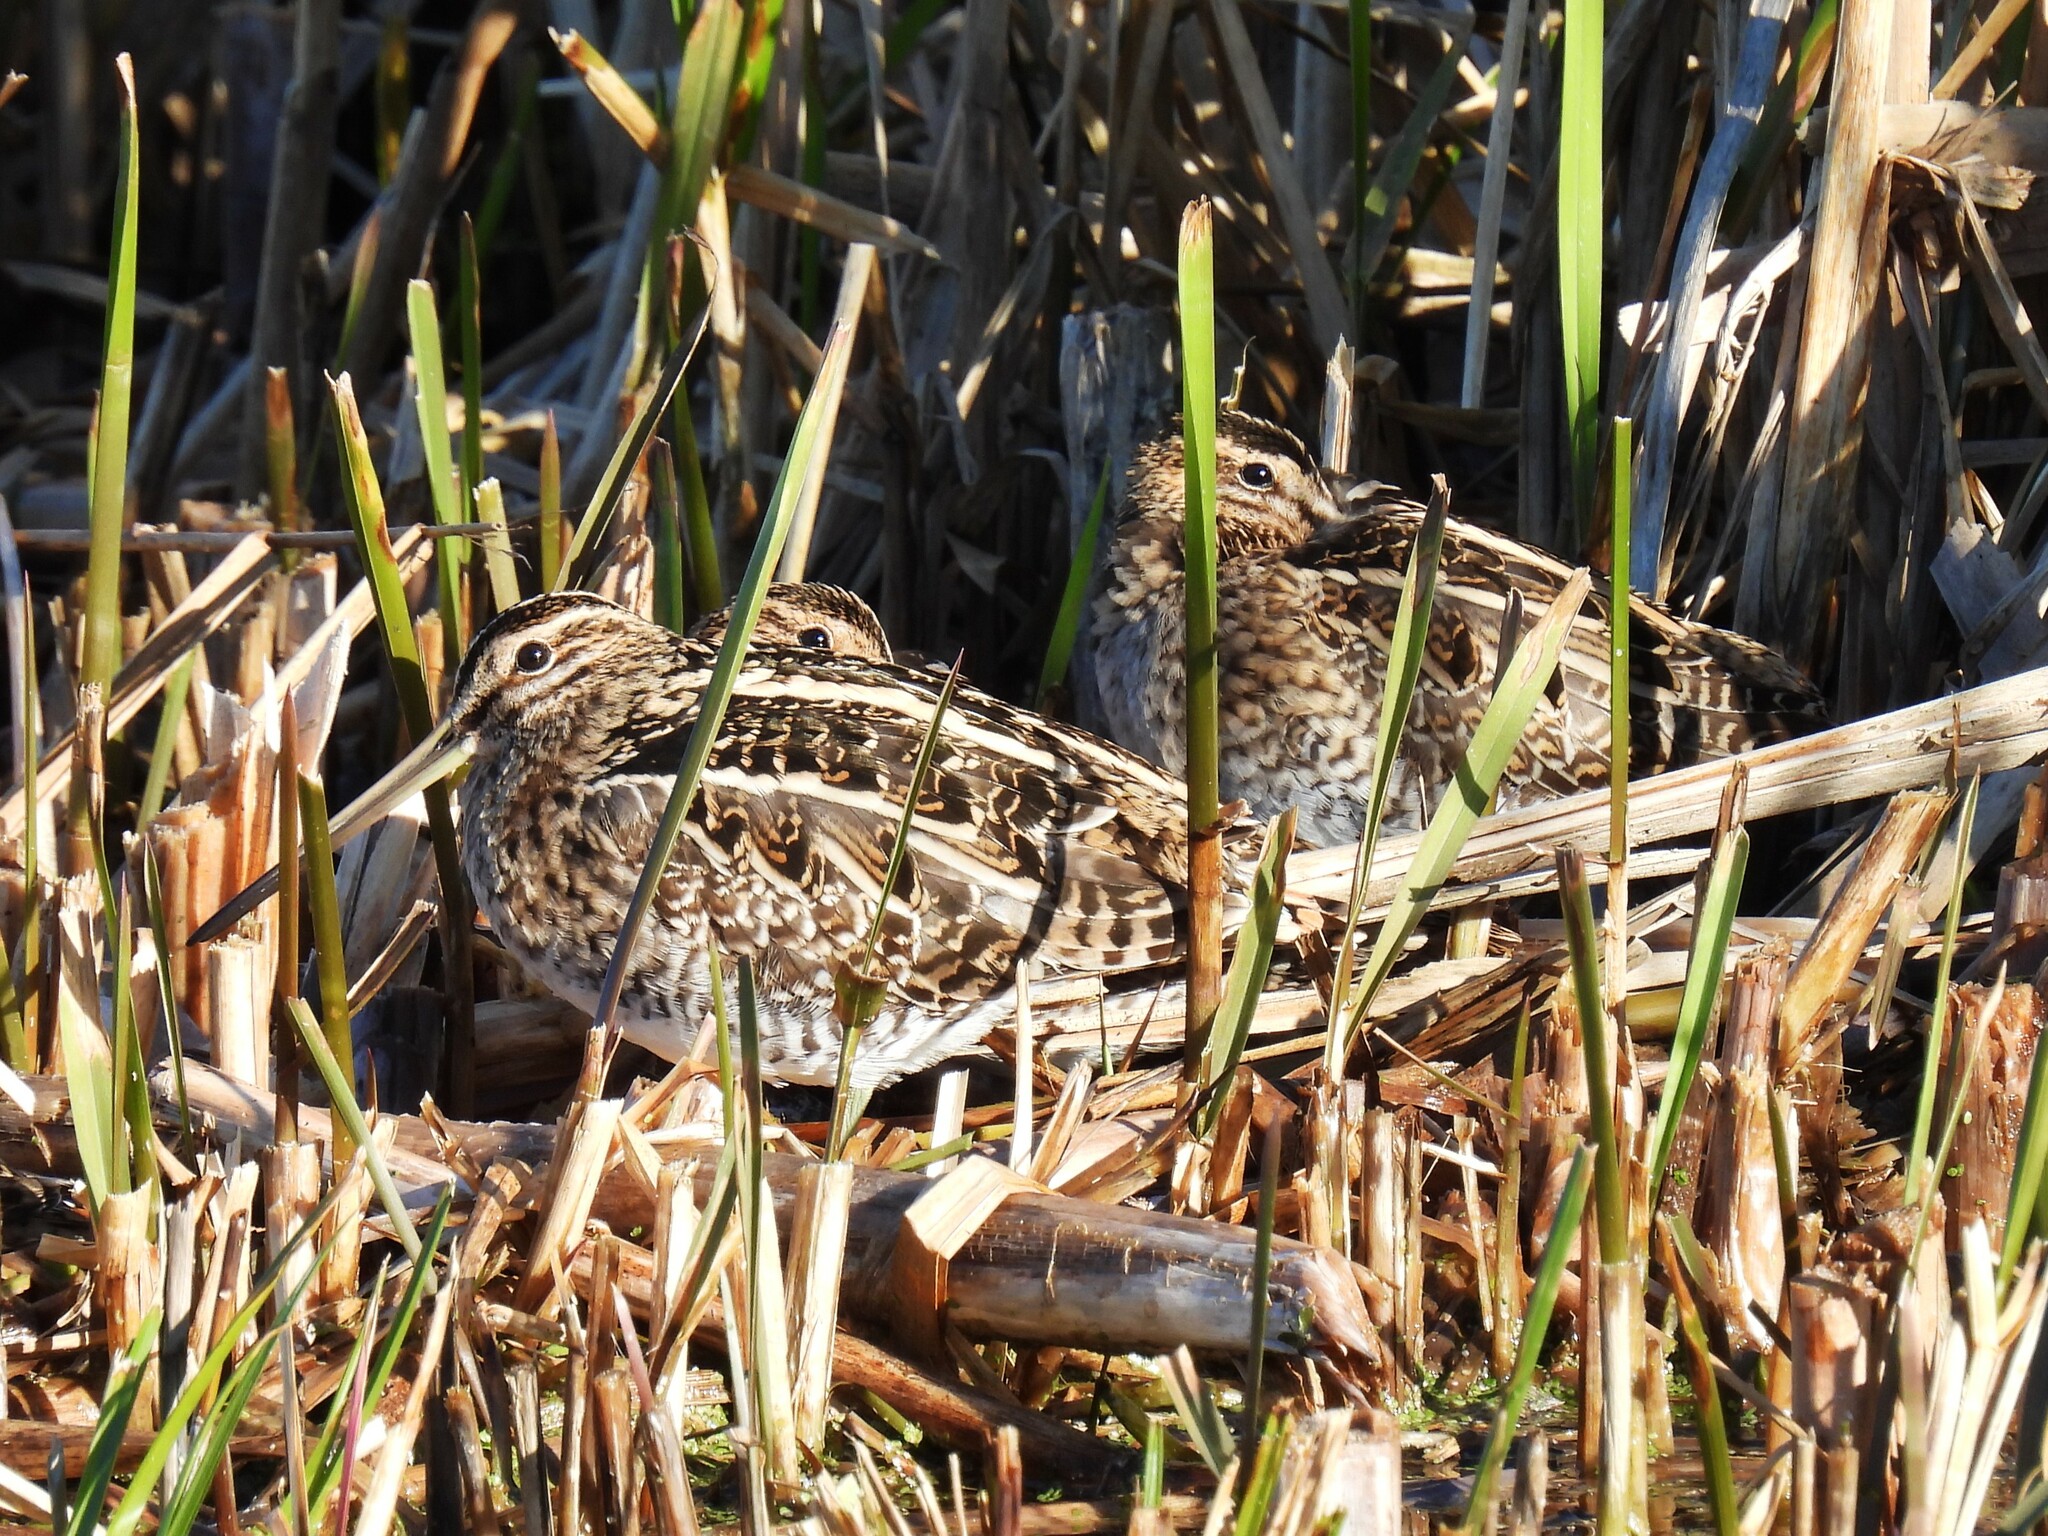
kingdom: Animalia
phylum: Chordata
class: Aves
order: Charadriiformes
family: Scolopacidae
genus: Gallinago
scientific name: Gallinago gallinago
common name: Common snipe
